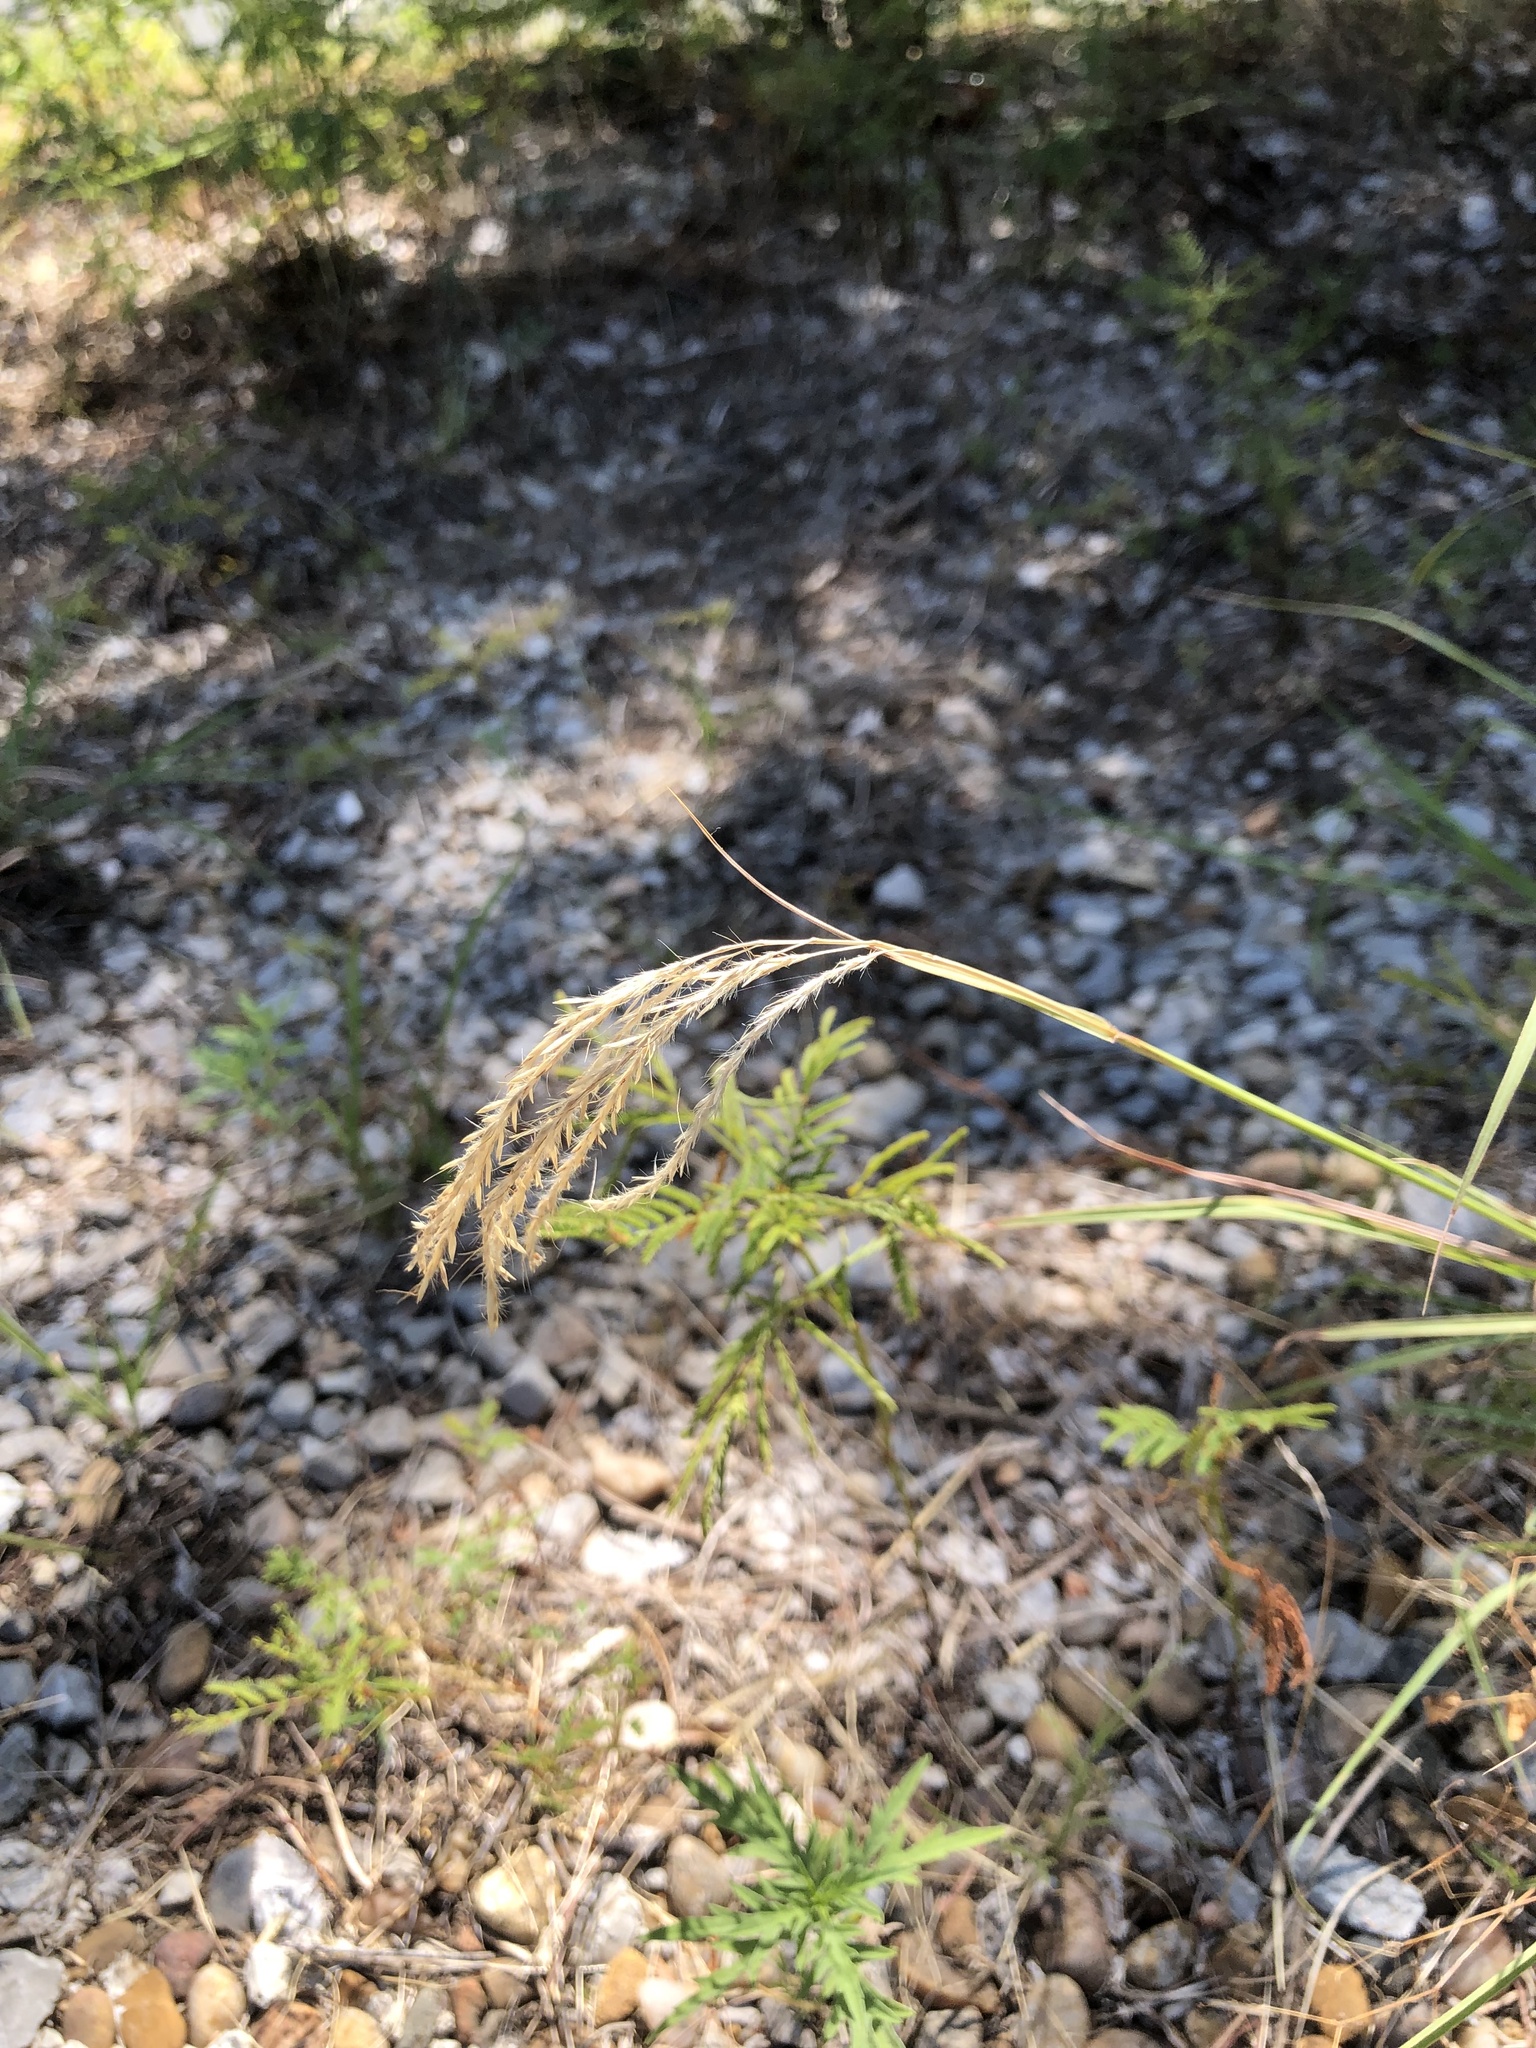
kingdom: Plantae
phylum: Tracheophyta
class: Liliopsida
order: Poales
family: Poaceae
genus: Bothriochloa
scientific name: Bothriochloa ischaemum
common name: Yellow bluestem
